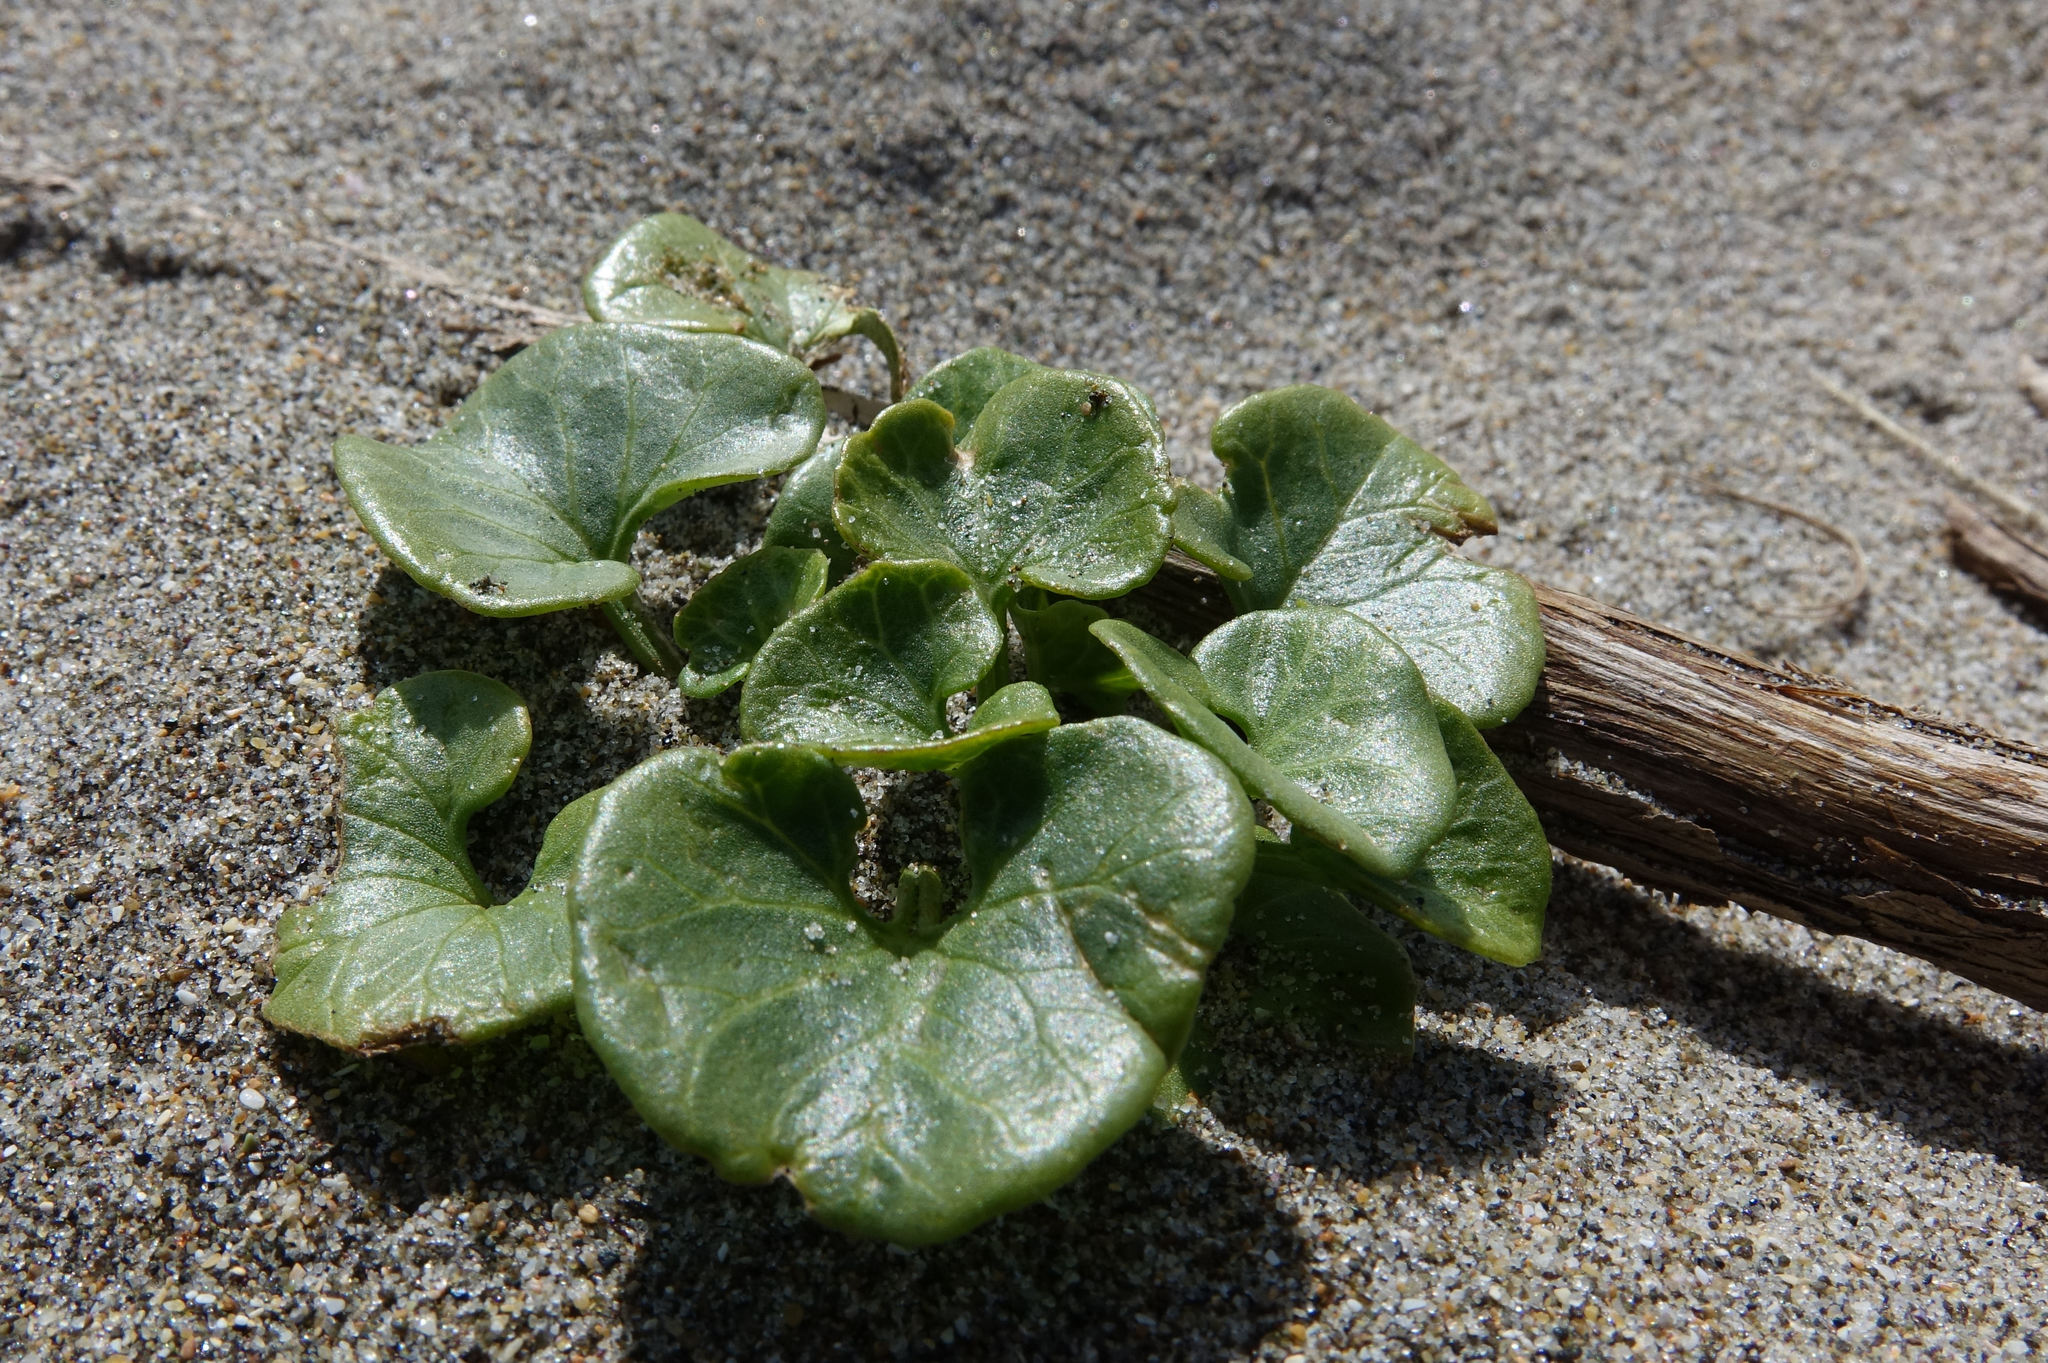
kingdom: Plantae
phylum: Tracheophyta
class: Magnoliopsida
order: Solanales
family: Convolvulaceae
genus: Calystegia
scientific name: Calystegia soldanella
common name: Sea bindweed
